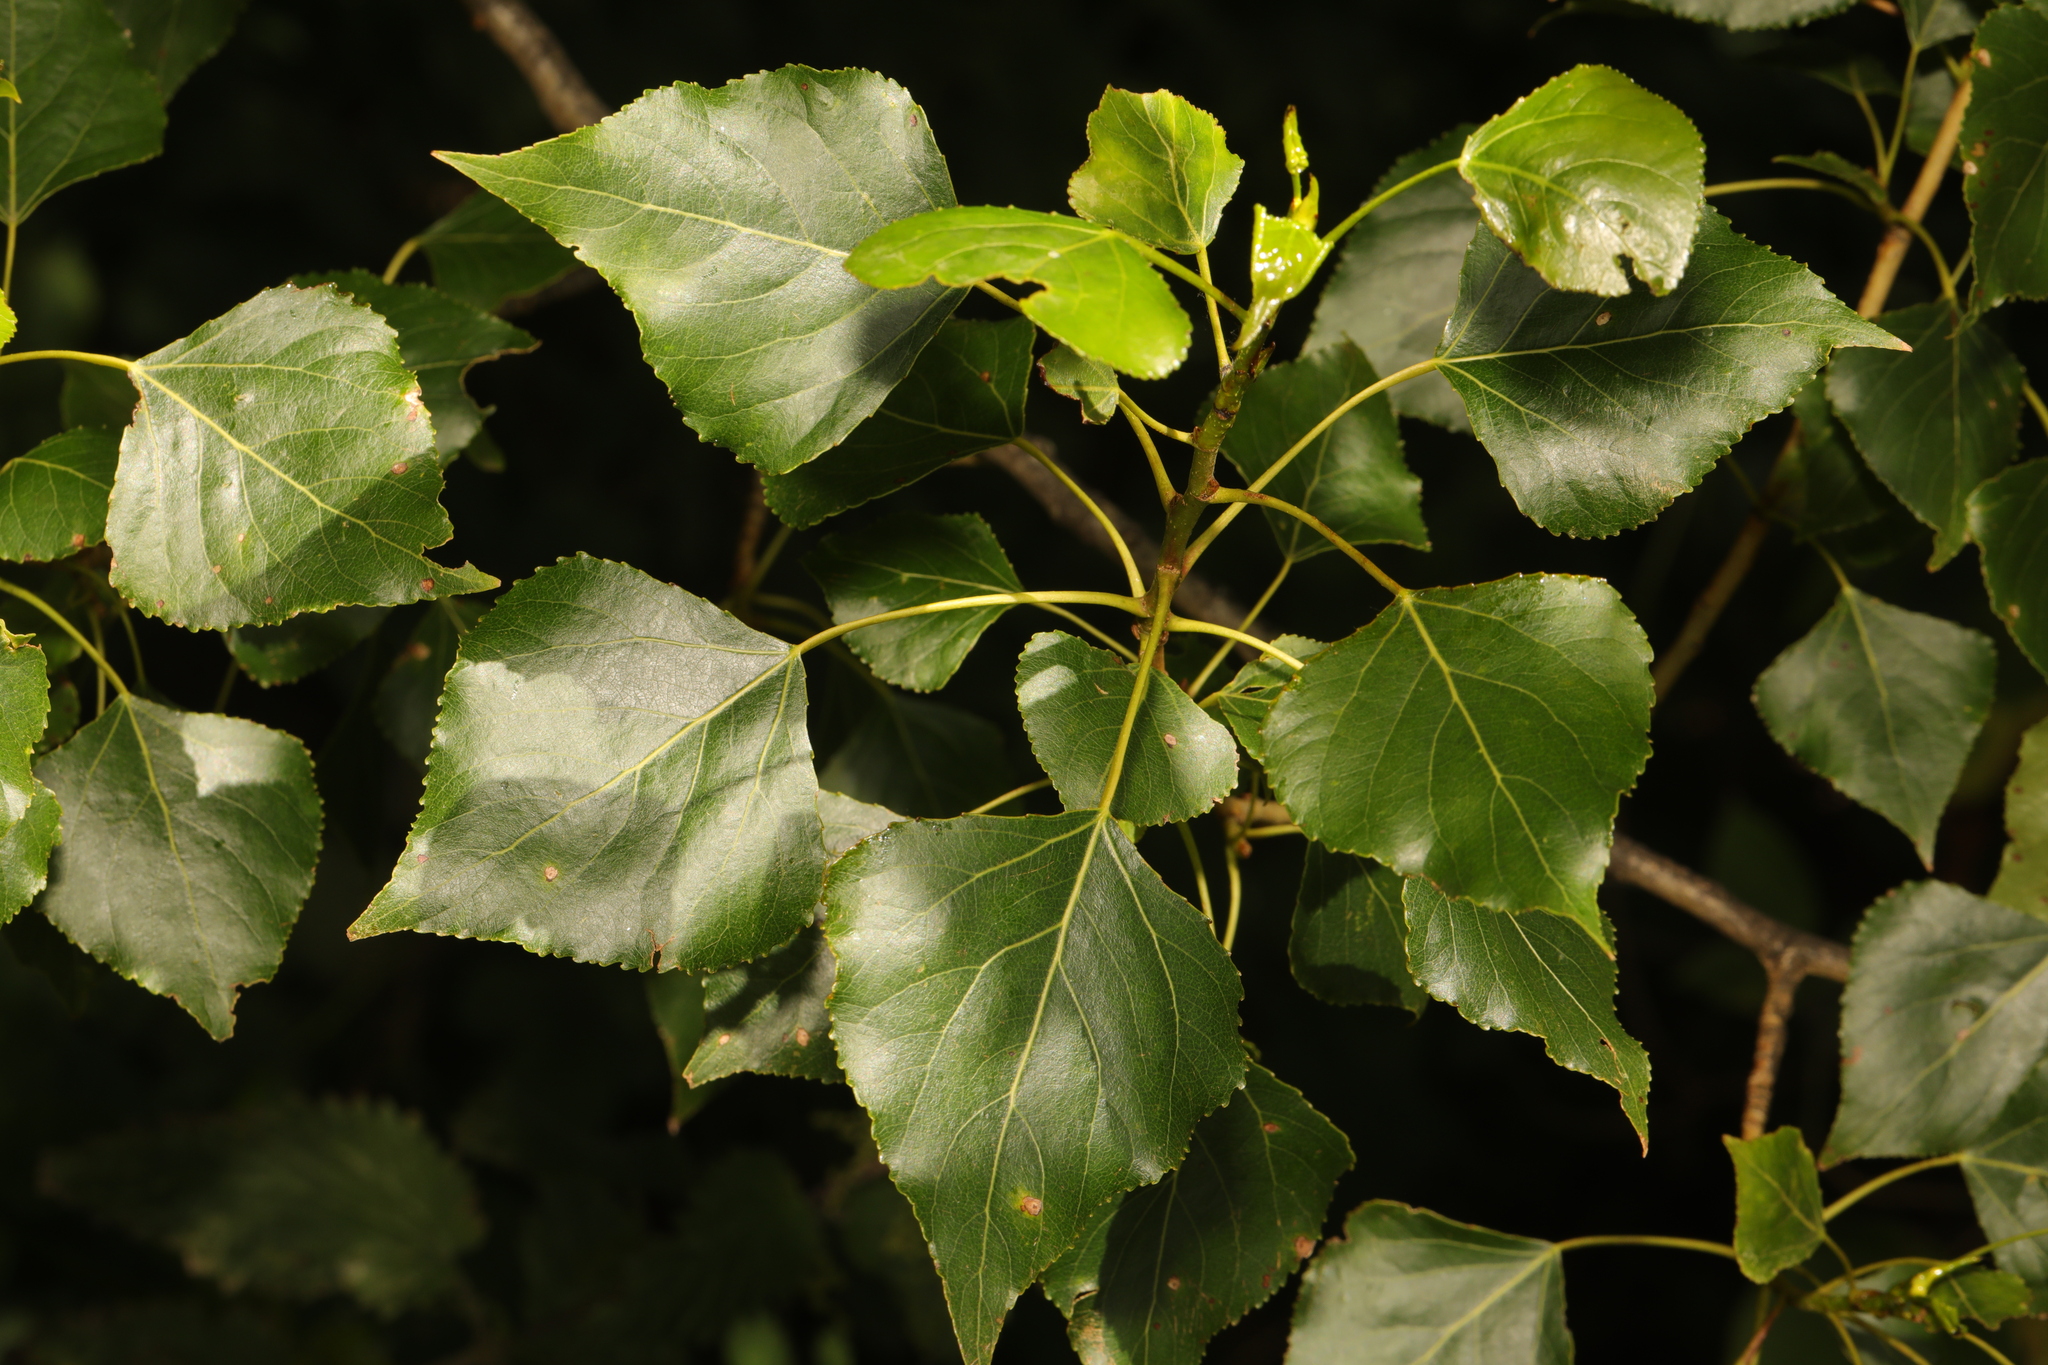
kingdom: Plantae
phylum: Tracheophyta
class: Magnoliopsida
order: Malpighiales
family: Salicaceae
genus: Populus
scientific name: Populus nigra
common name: Black poplar
